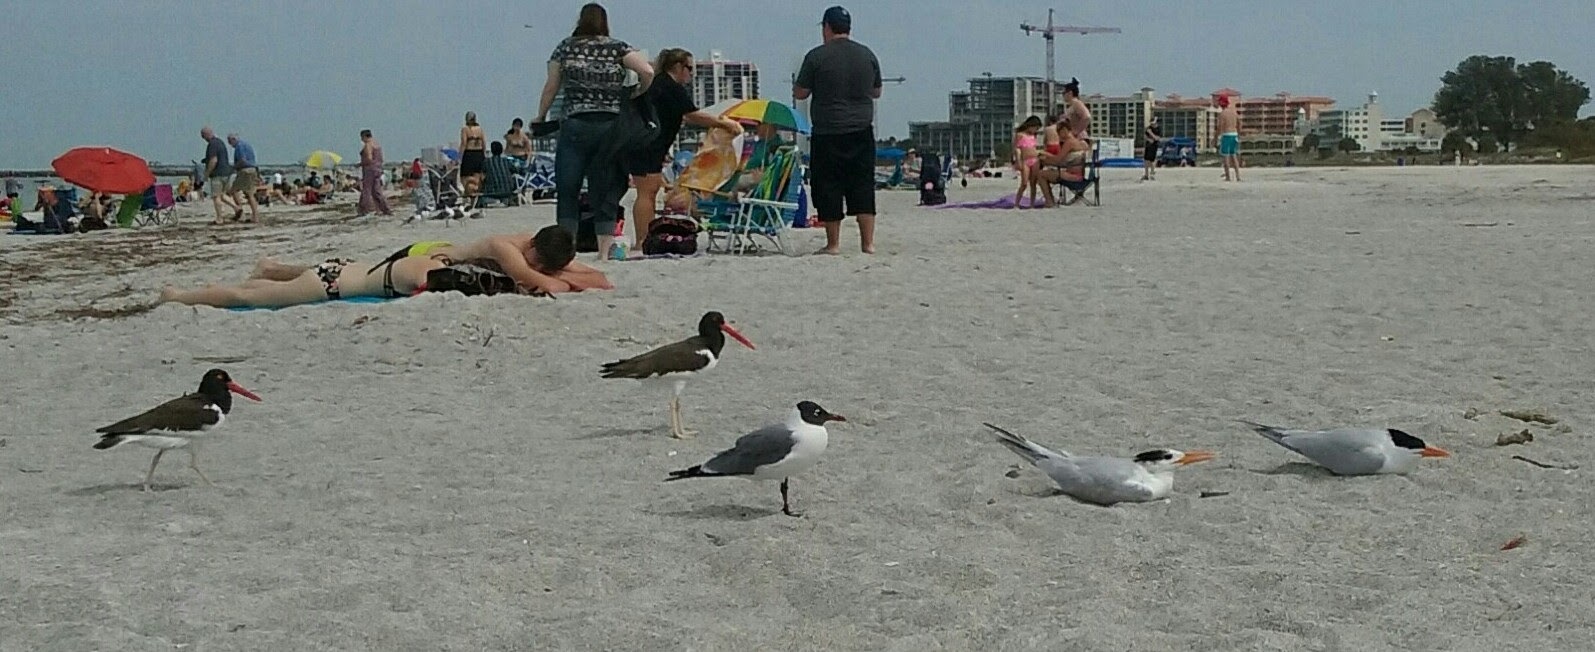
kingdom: Animalia
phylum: Chordata
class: Aves
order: Charadriiformes
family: Haematopodidae
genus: Haematopus
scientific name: Haematopus palliatus
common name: American oystercatcher
